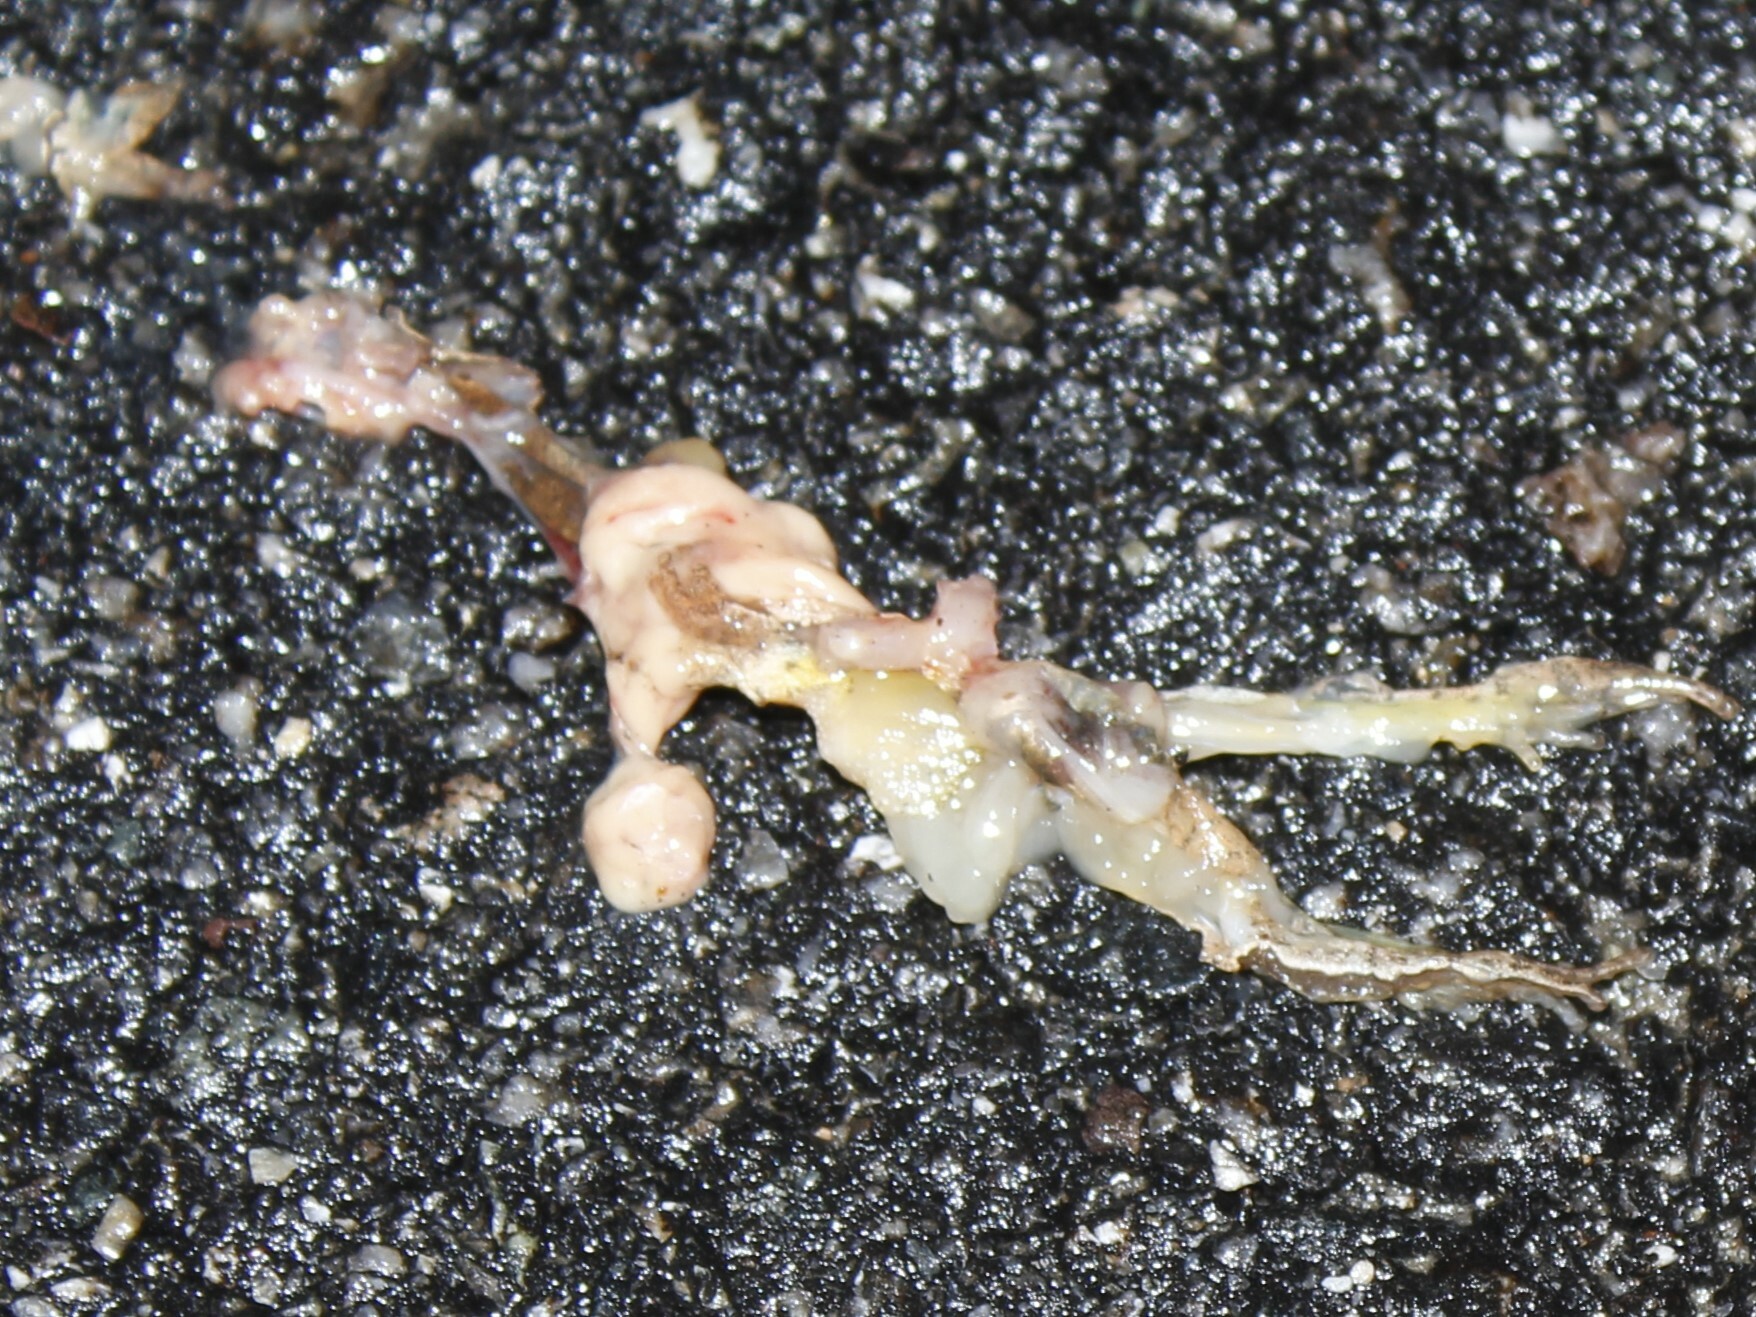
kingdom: Animalia
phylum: Chordata
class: Amphibia
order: Anura
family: Hylidae
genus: Pseudacris
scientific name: Pseudacris crucifer
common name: Spring peeper
